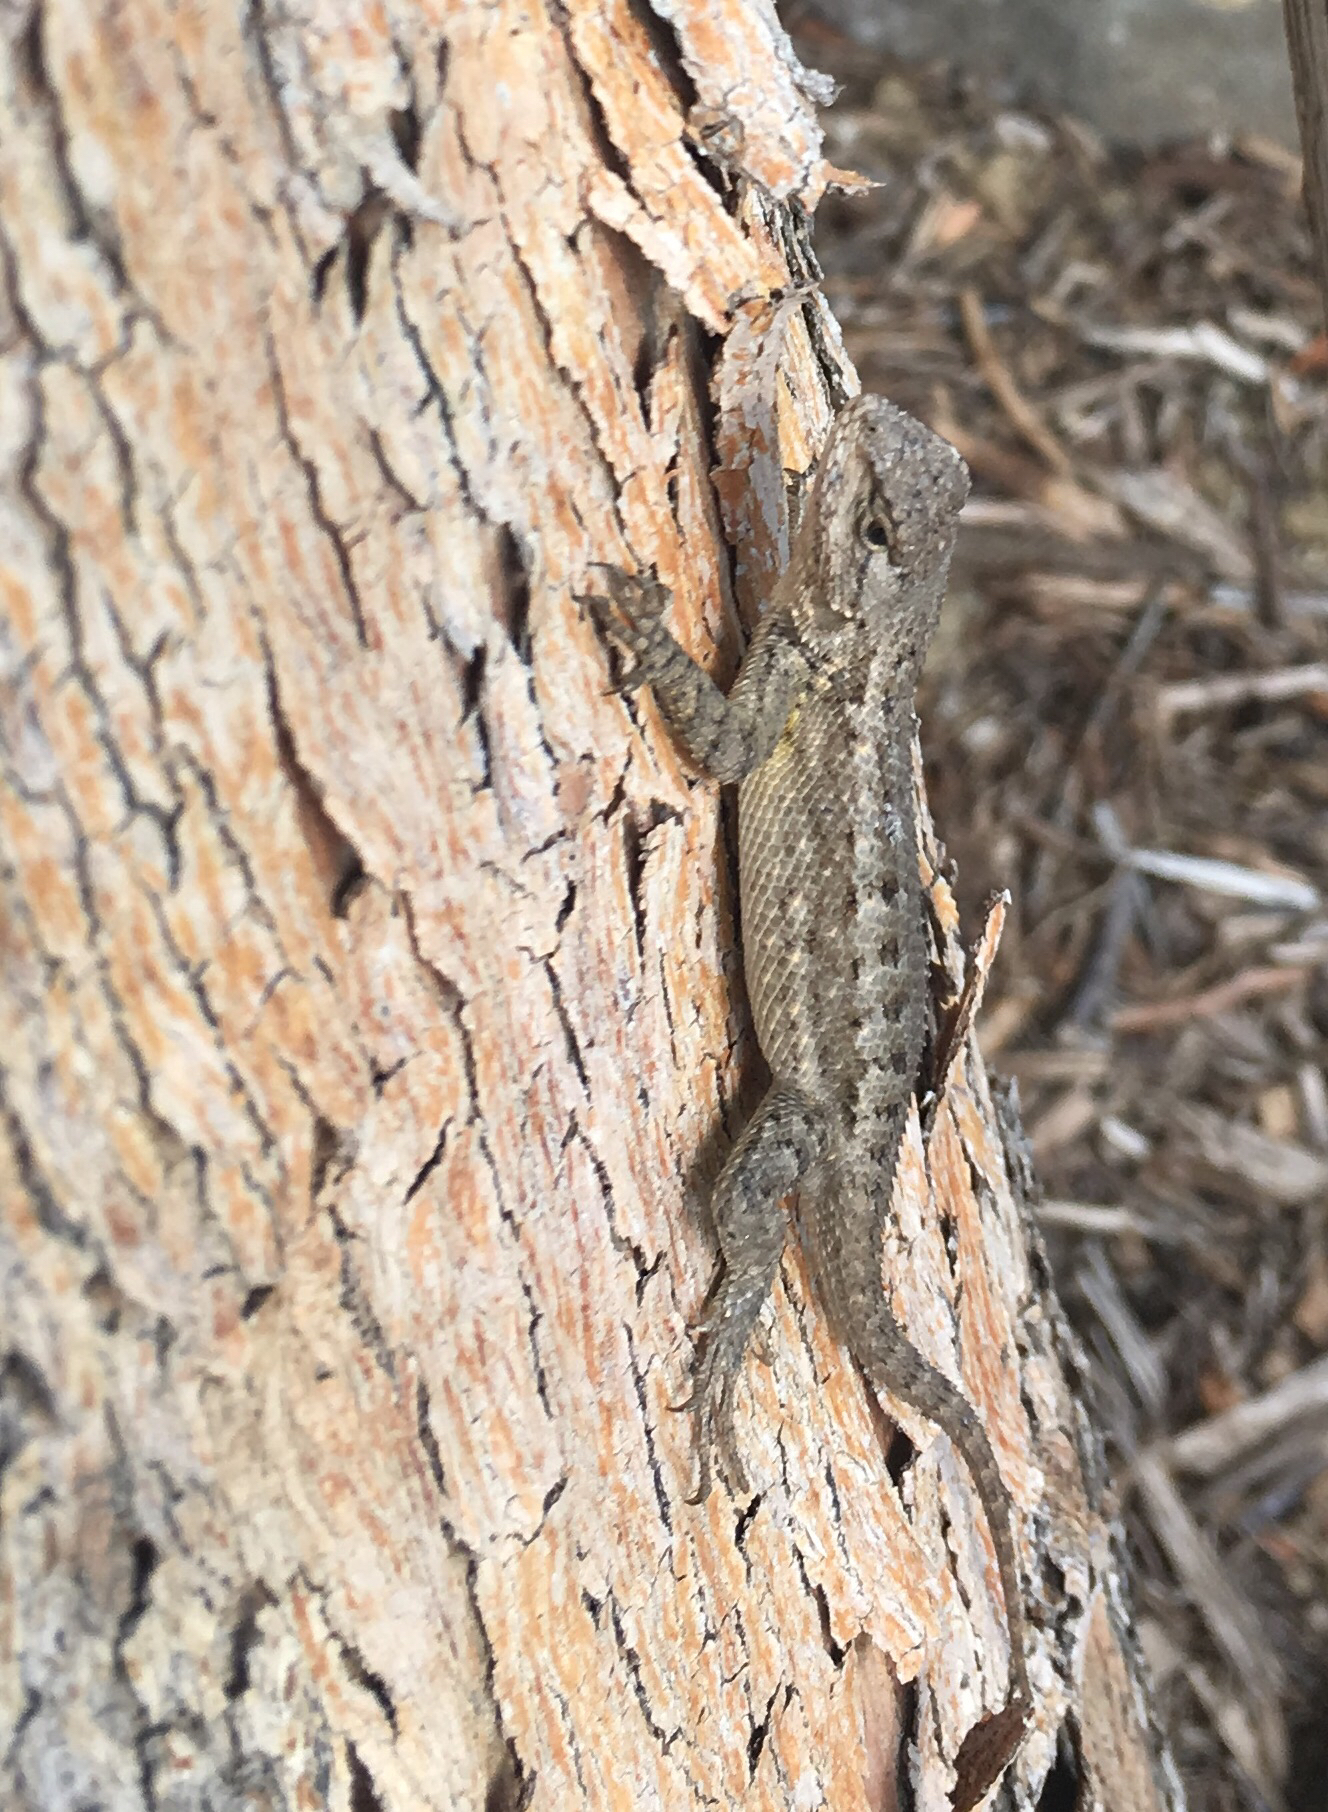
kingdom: Animalia
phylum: Chordata
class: Squamata
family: Phrynosomatidae
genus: Sceloporus
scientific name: Sceloporus occidentalis
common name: Western fence lizard
